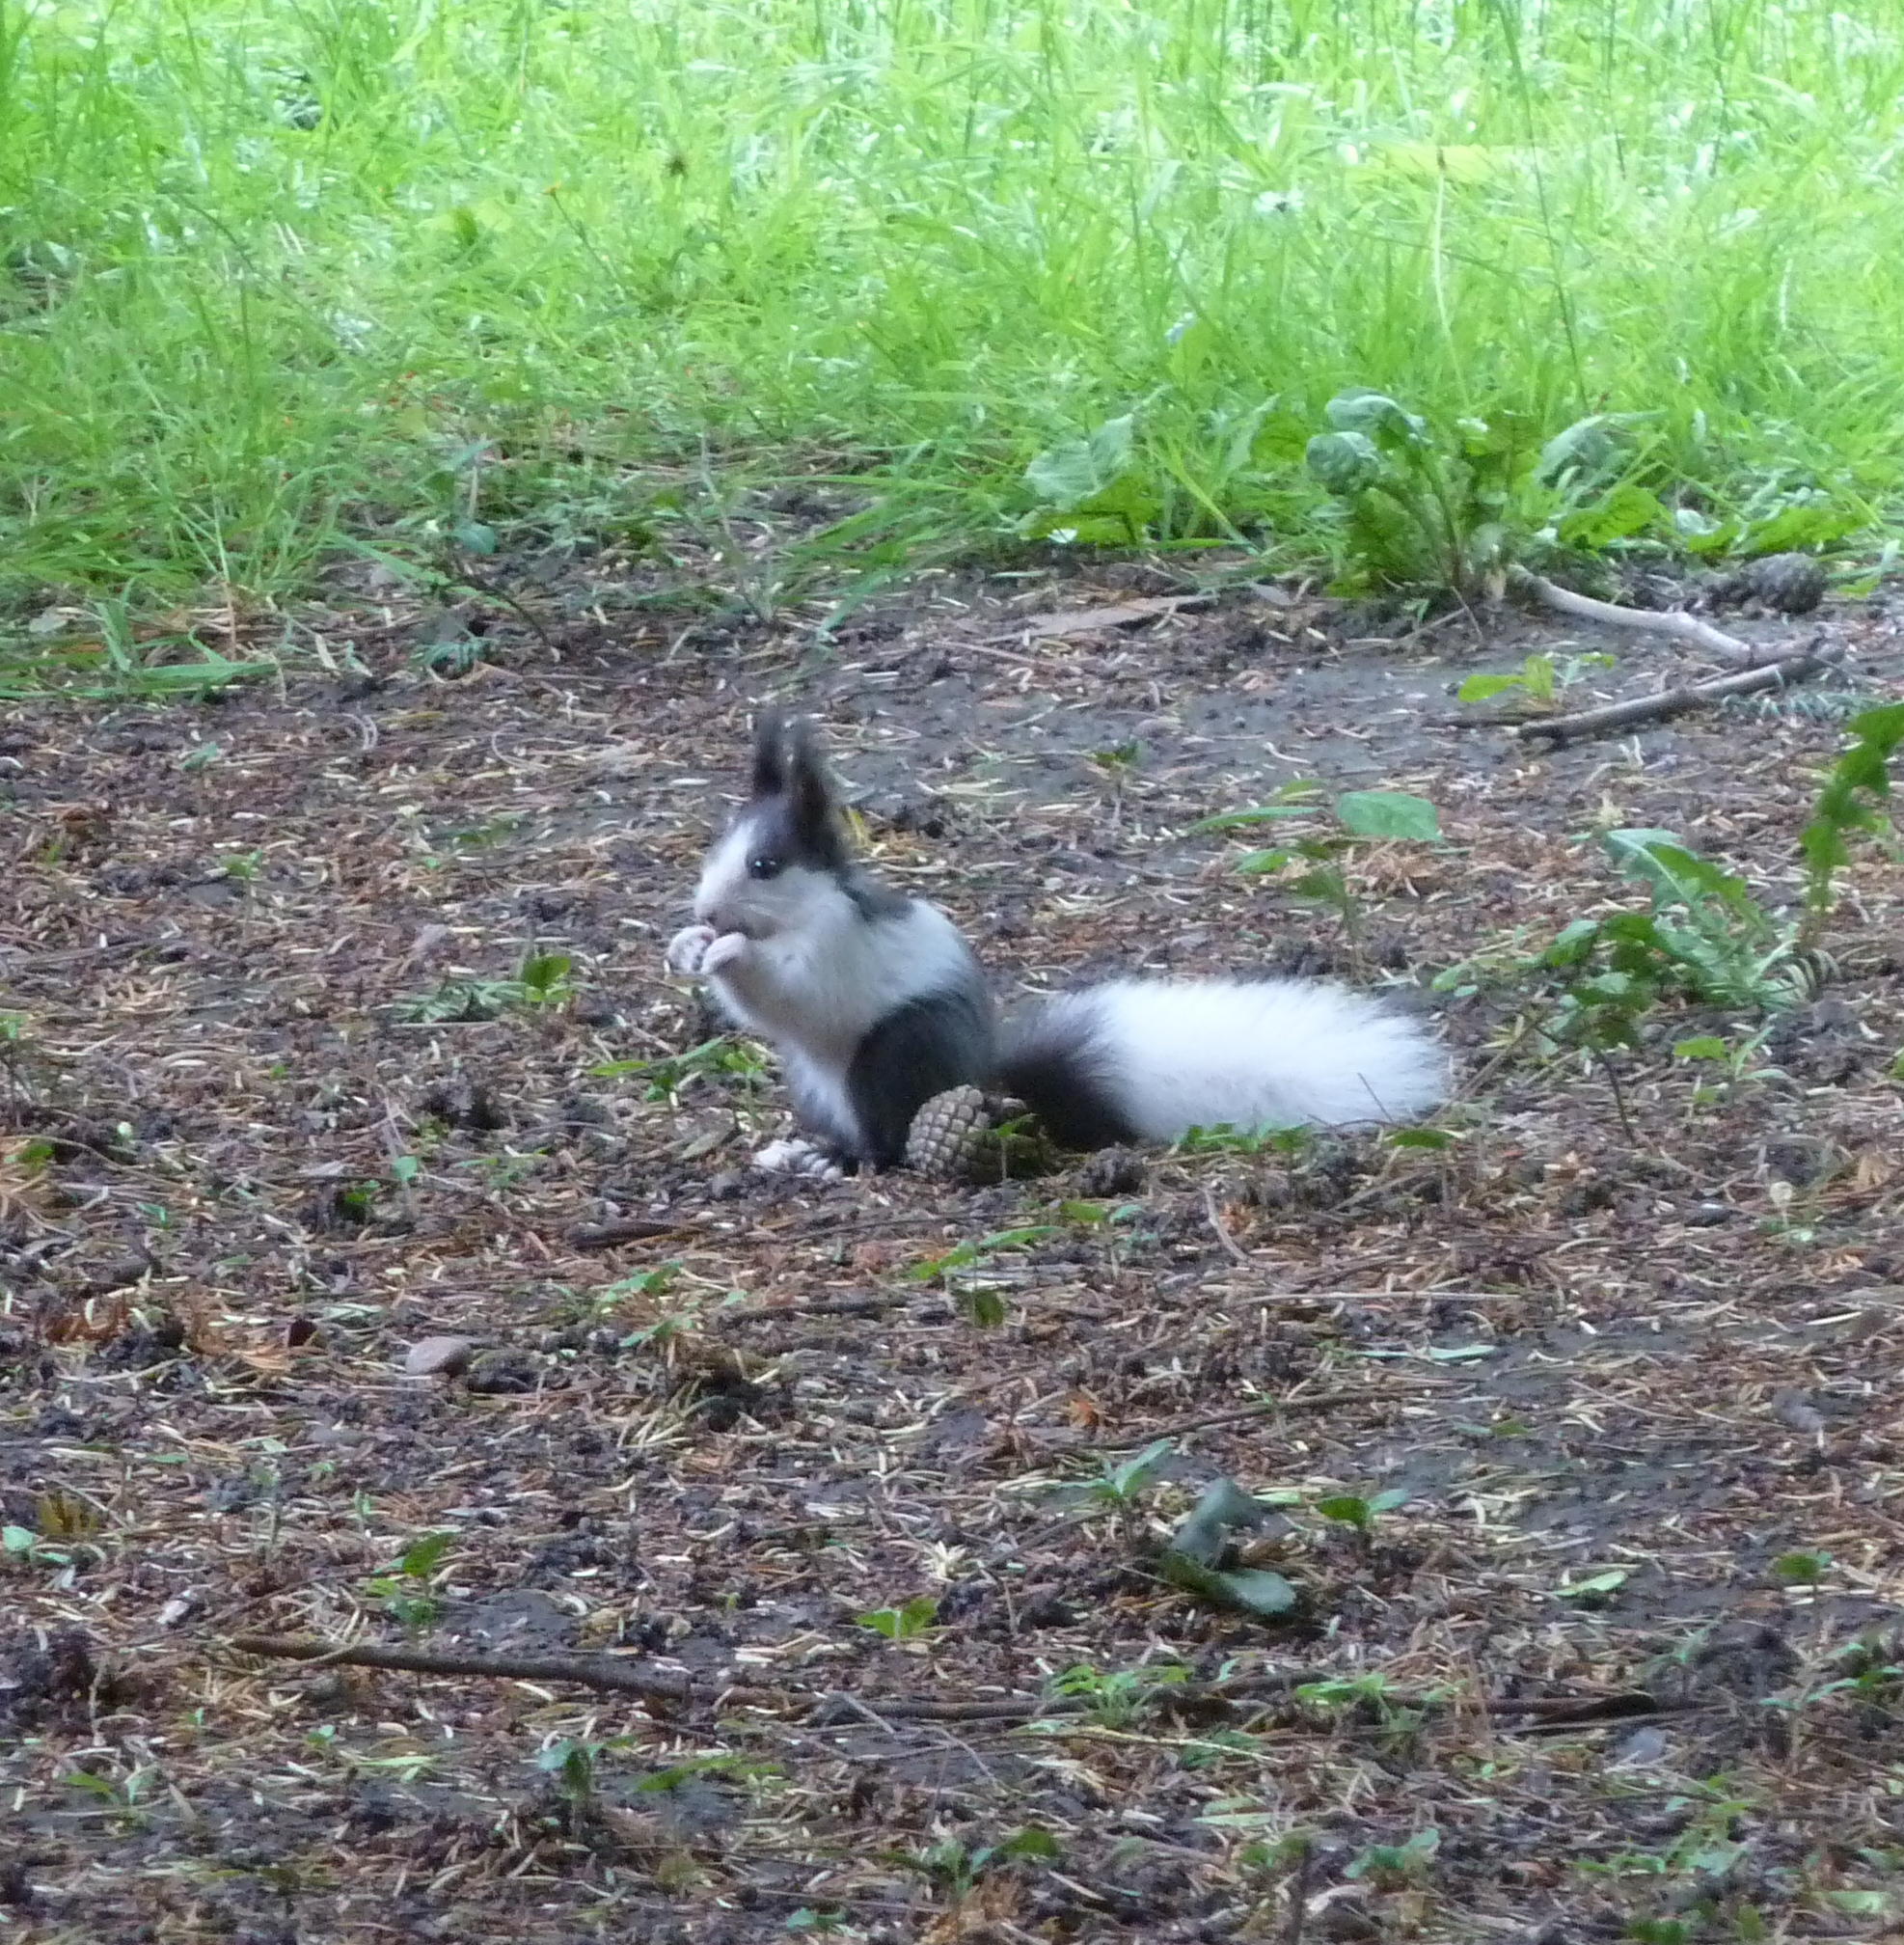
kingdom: Animalia
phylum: Chordata
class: Mammalia
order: Rodentia
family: Sciuridae
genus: Sciurus
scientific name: Sciurus vulgaris
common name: Eurasian red squirrel
